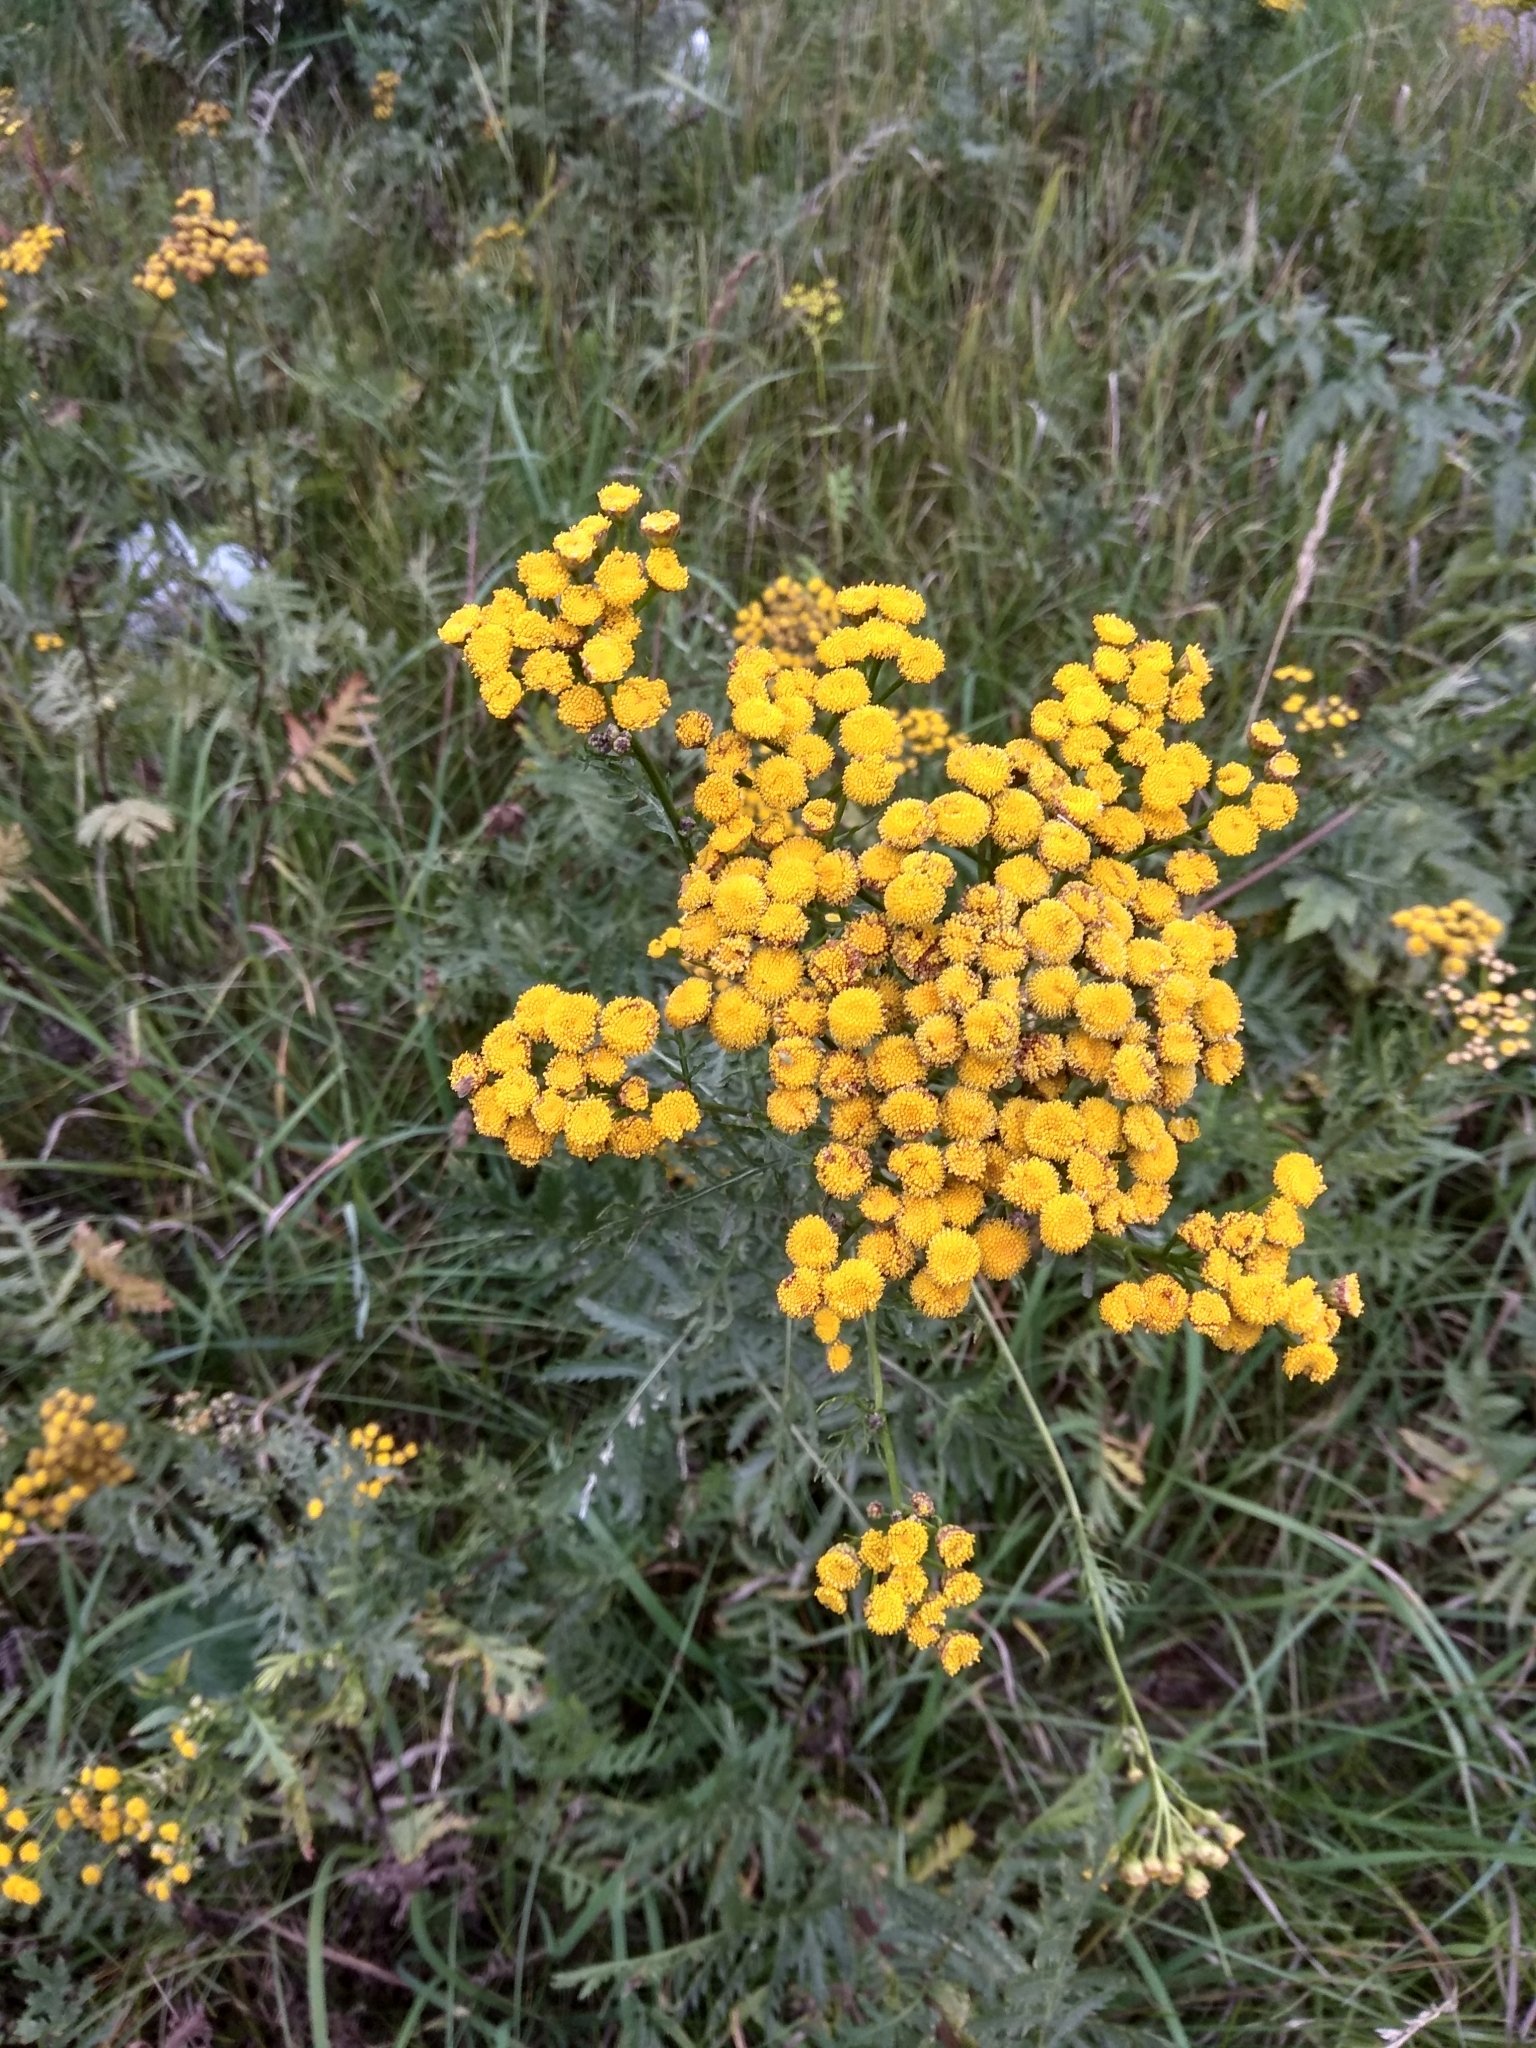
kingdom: Plantae
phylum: Tracheophyta
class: Magnoliopsida
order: Asterales
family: Asteraceae
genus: Tanacetum
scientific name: Tanacetum vulgare
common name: Common tansy
